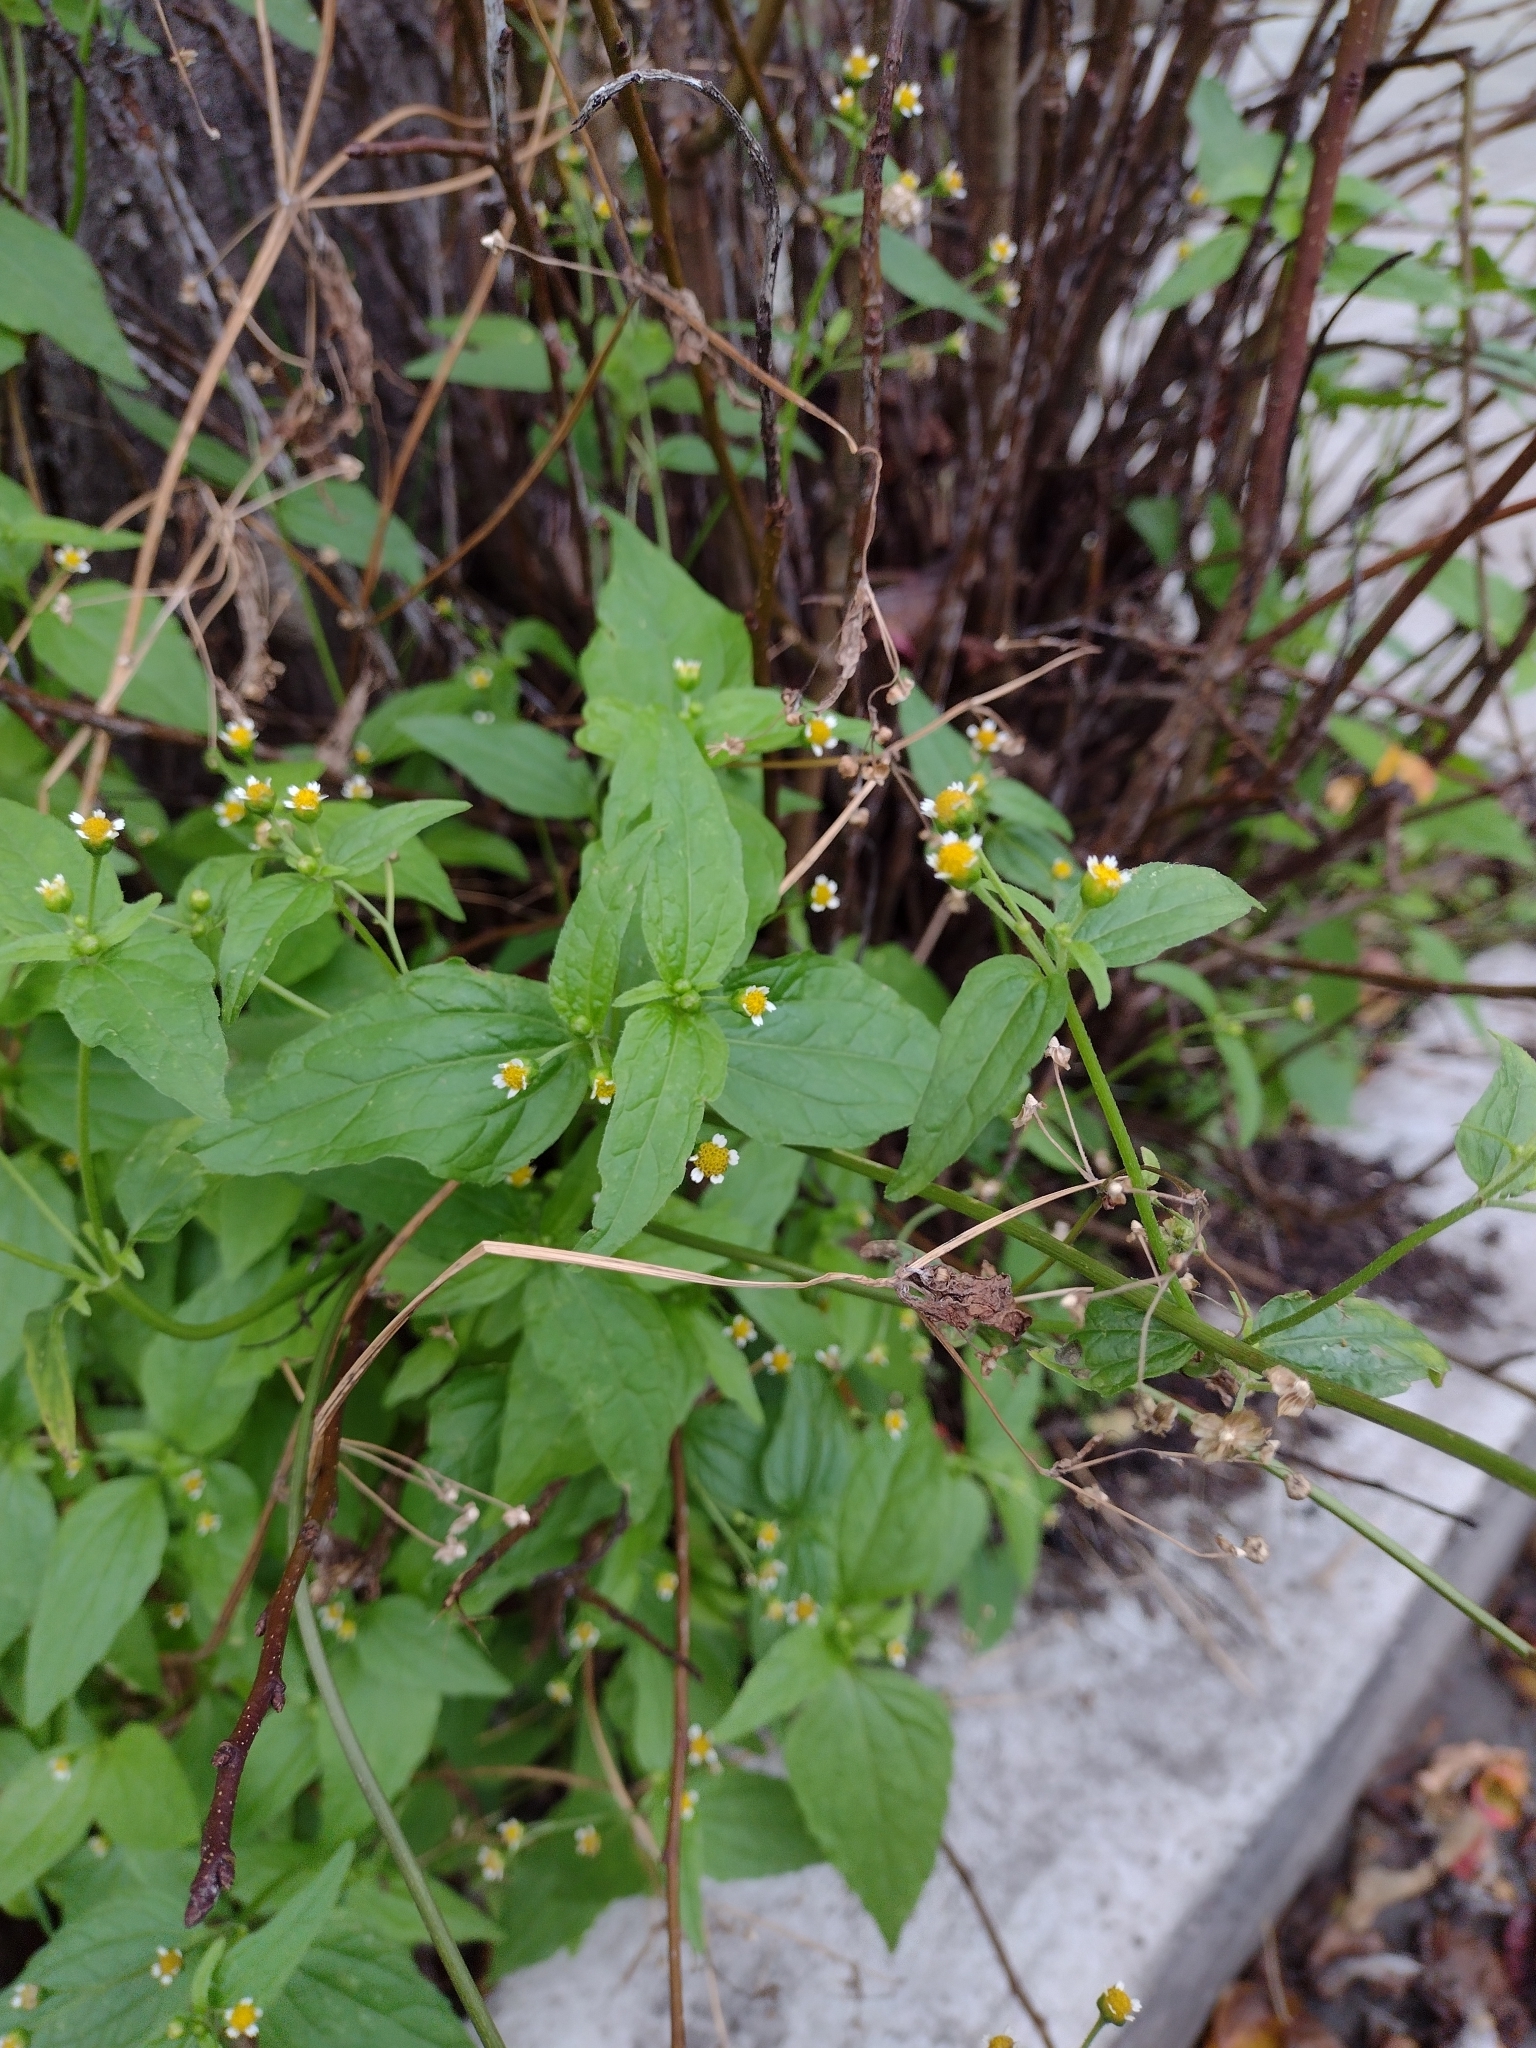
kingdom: Plantae
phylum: Tracheophyta
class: Magnoliopsida
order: Asterales
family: Asteraceae
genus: Galinsoga
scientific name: Galinsoga quadriradiata
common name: Shaggy soldier
